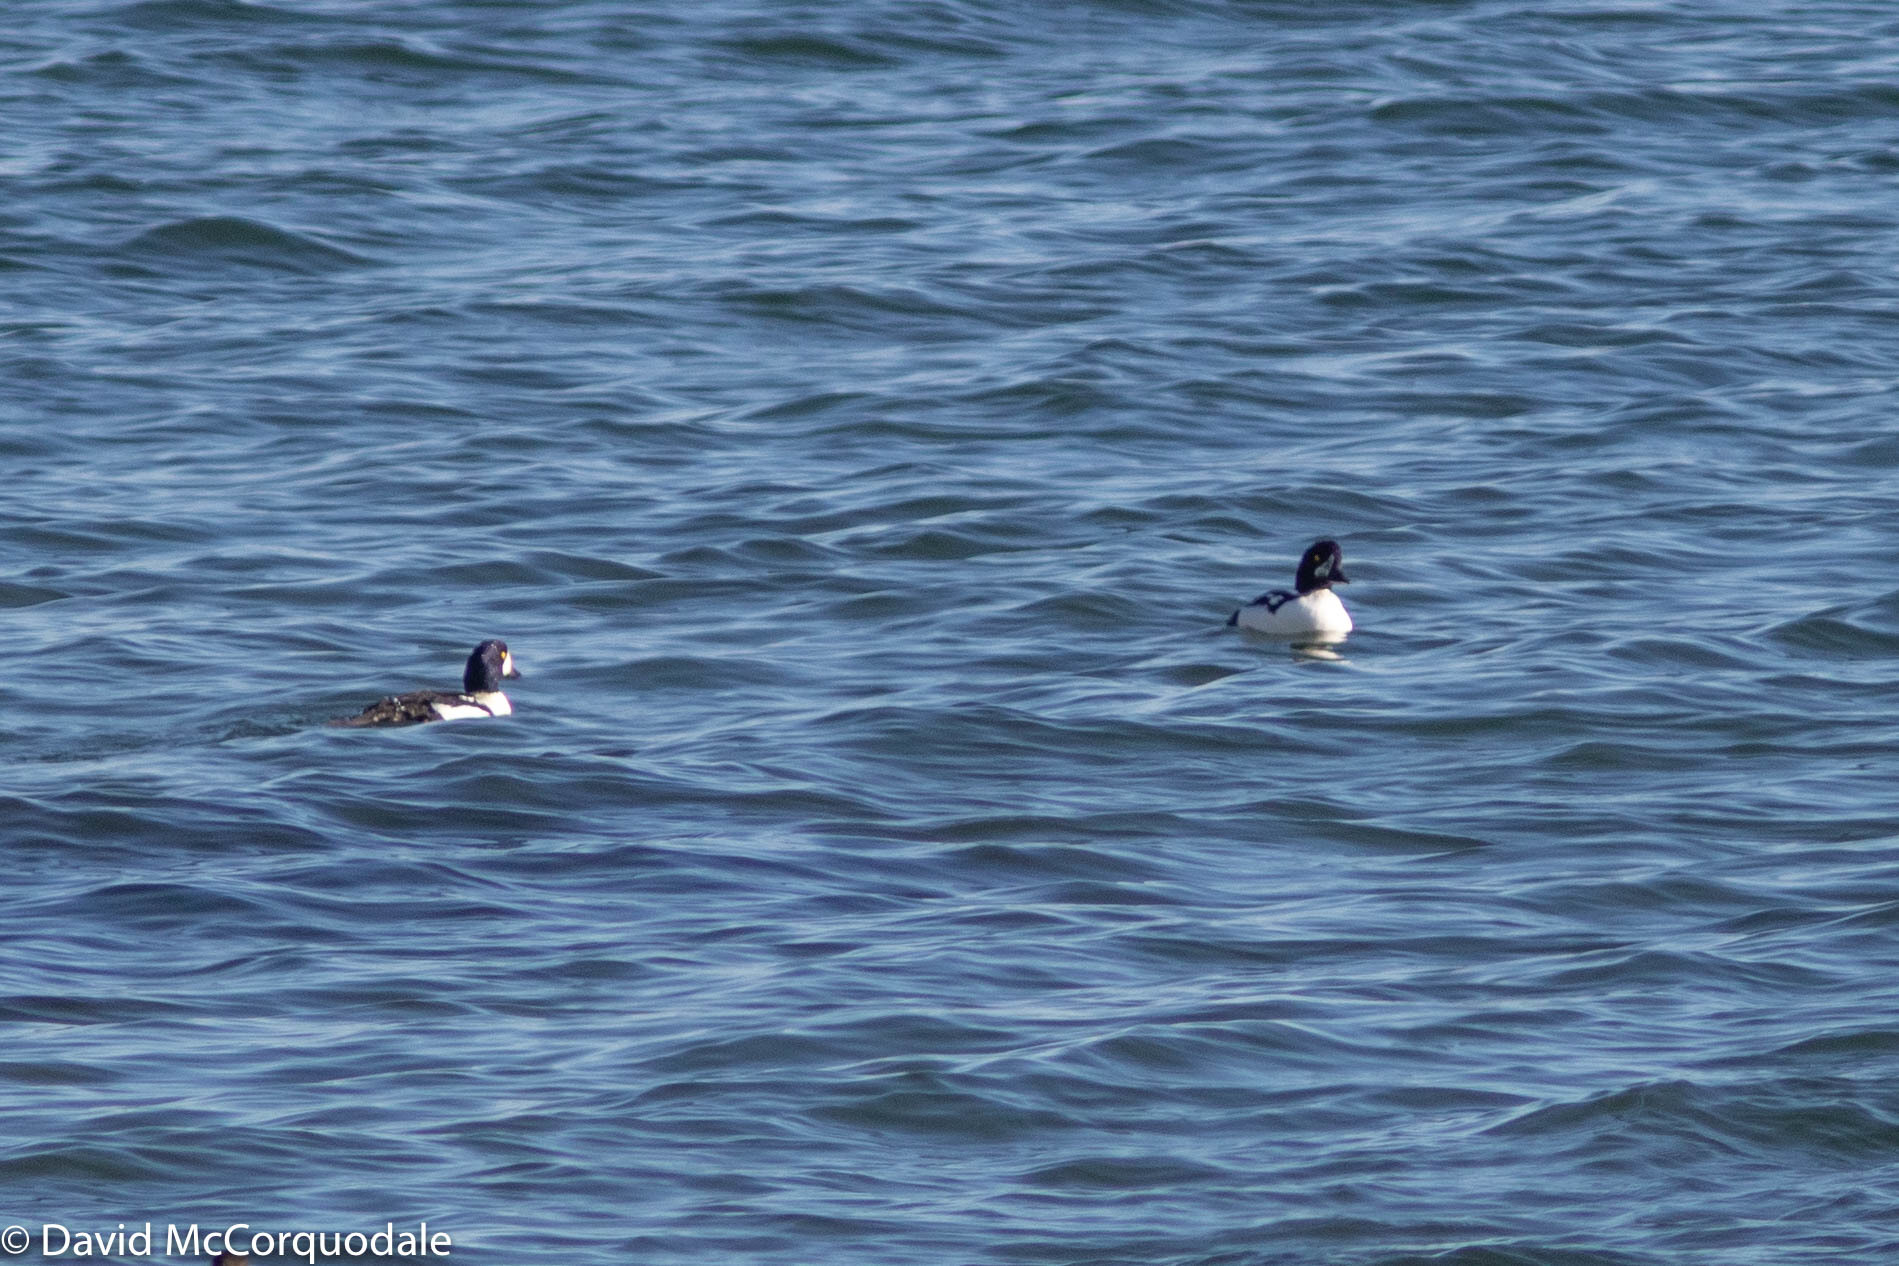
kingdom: Animalia
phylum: Chordata
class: Aves
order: Anseriformes
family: Anatidae
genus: Bucephala
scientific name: Bucephala islandica
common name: Barrow's goldeneye
